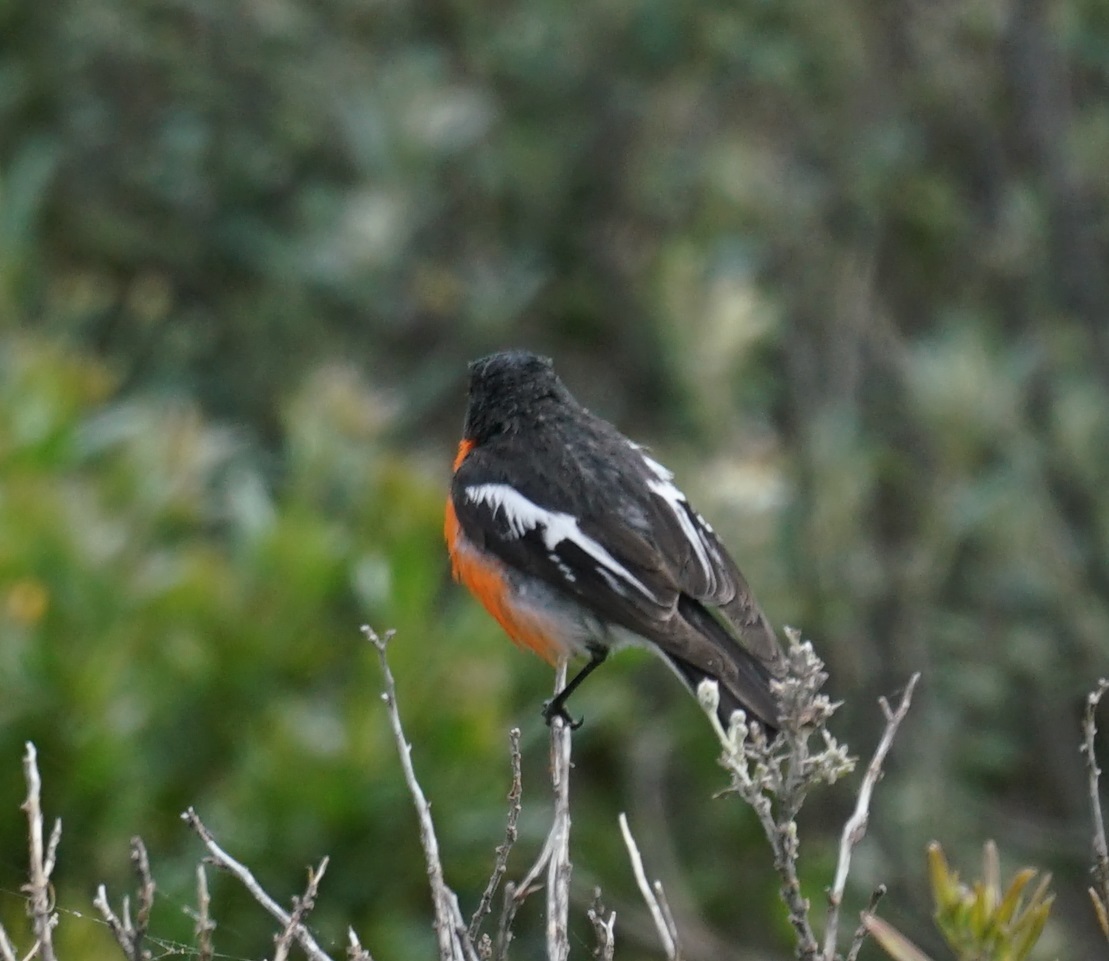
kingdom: Animalia
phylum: Chordata
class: Aves
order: Passeriformes
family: Petroicidae
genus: Petroica
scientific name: Petroica phoenicea
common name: Flame robin
